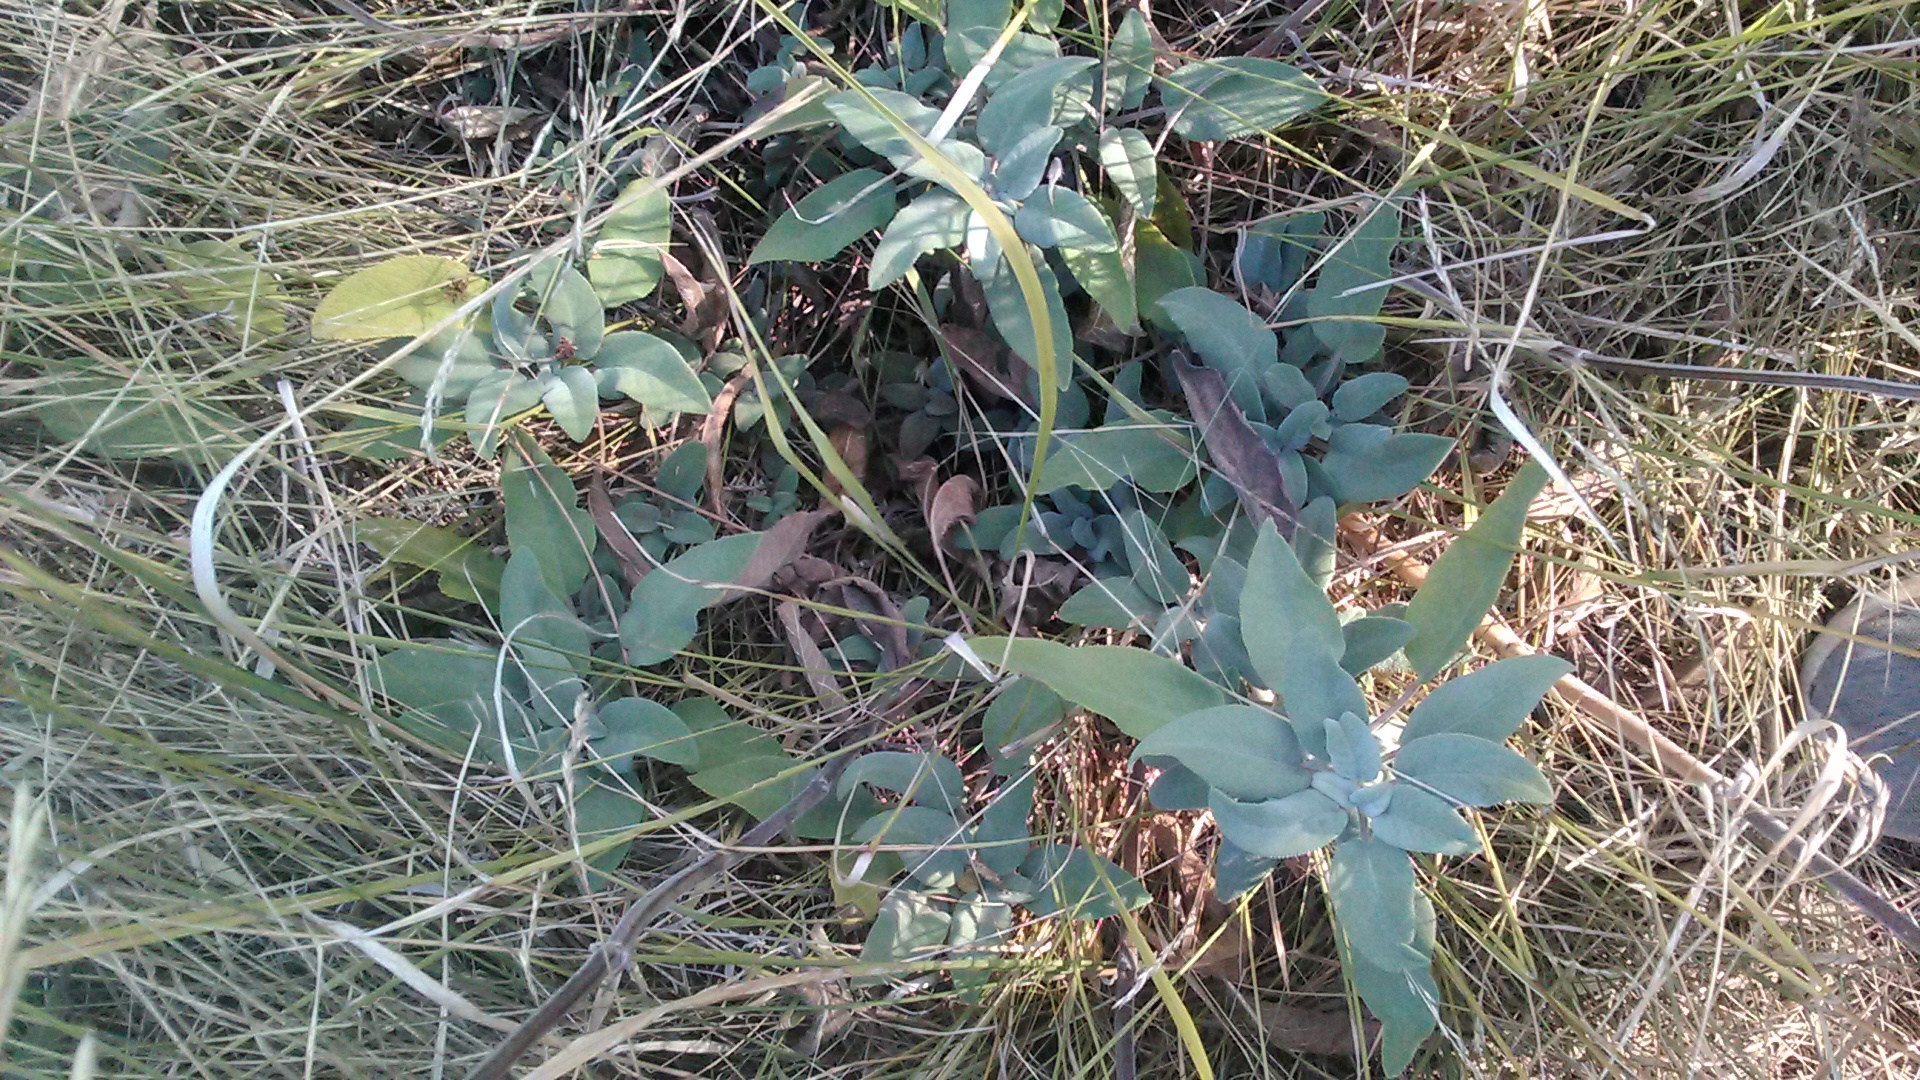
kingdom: Plantae
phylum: Tracheophyta
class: Magnoliopsida
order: Lamiales
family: Lamiaceae
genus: Salvia
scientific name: Salvia tomentosa
